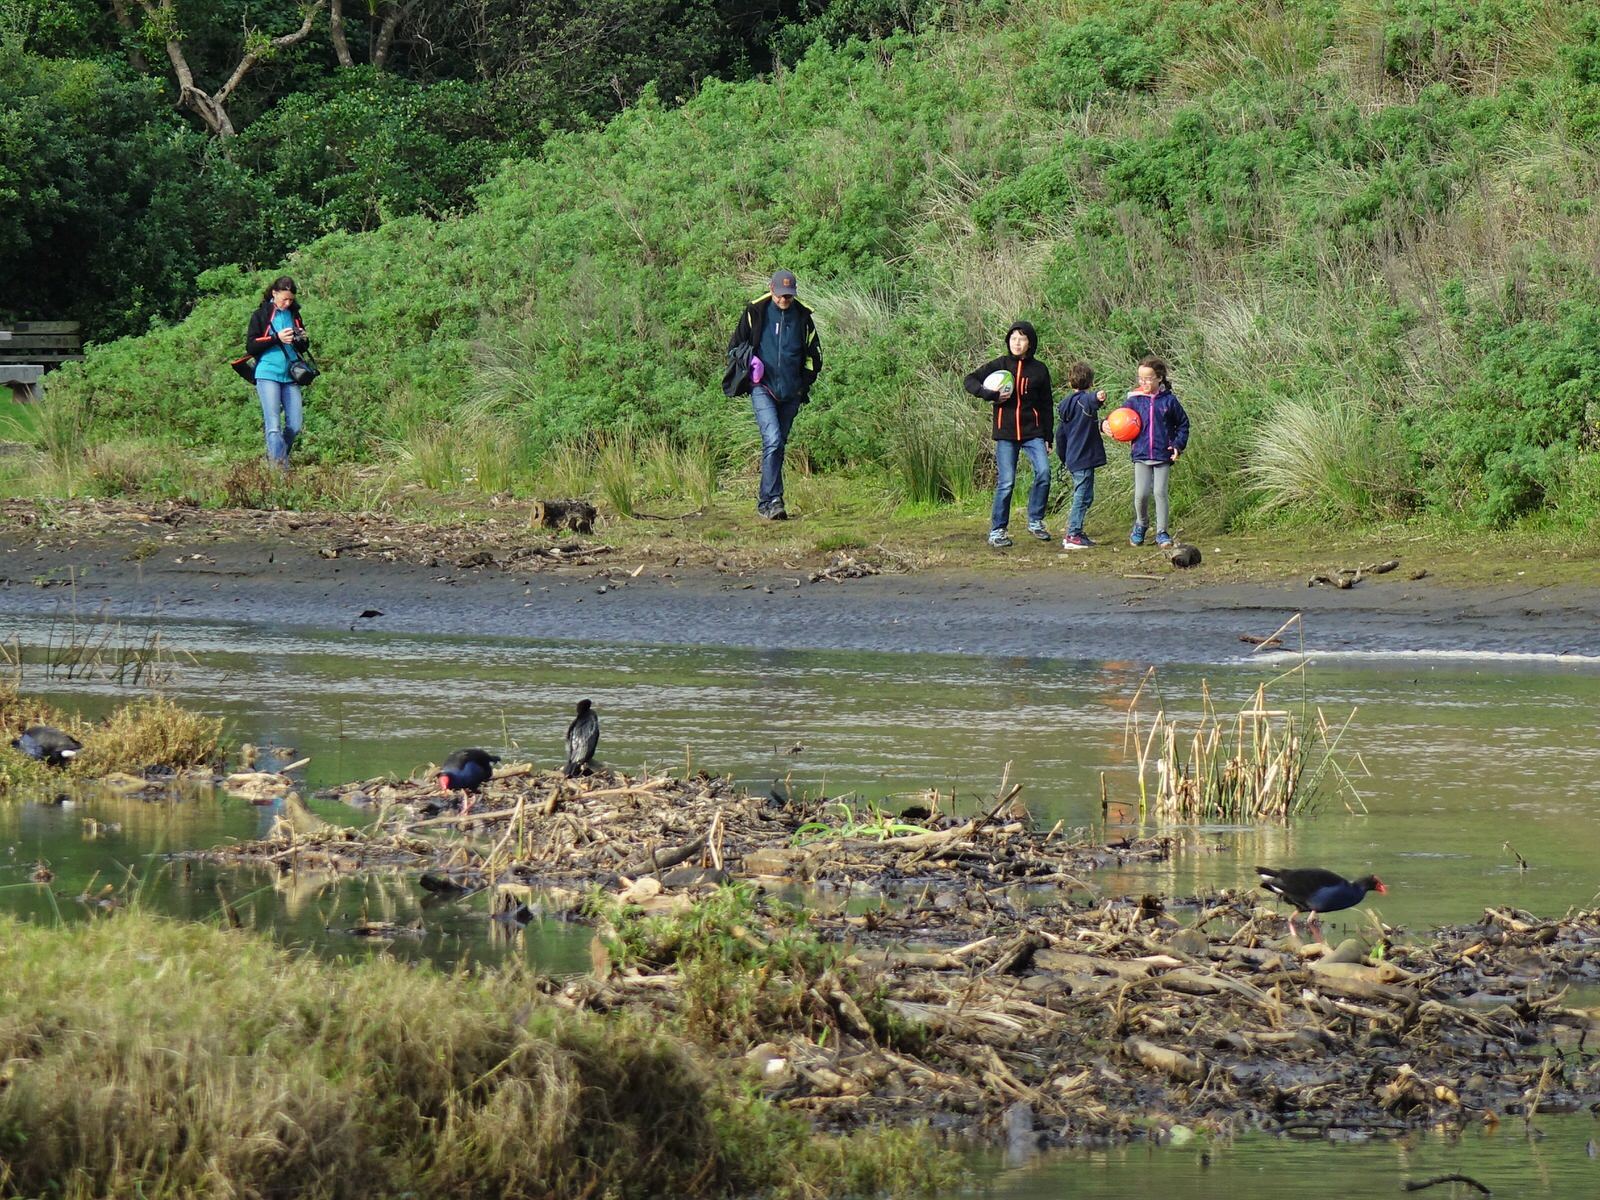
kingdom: Animalia
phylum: Chordata
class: Aves
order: Suliformes
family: Phalacrocoracidae
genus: Microcarbo
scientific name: Microcarbo melanoleucos
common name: Little pied cormorant
